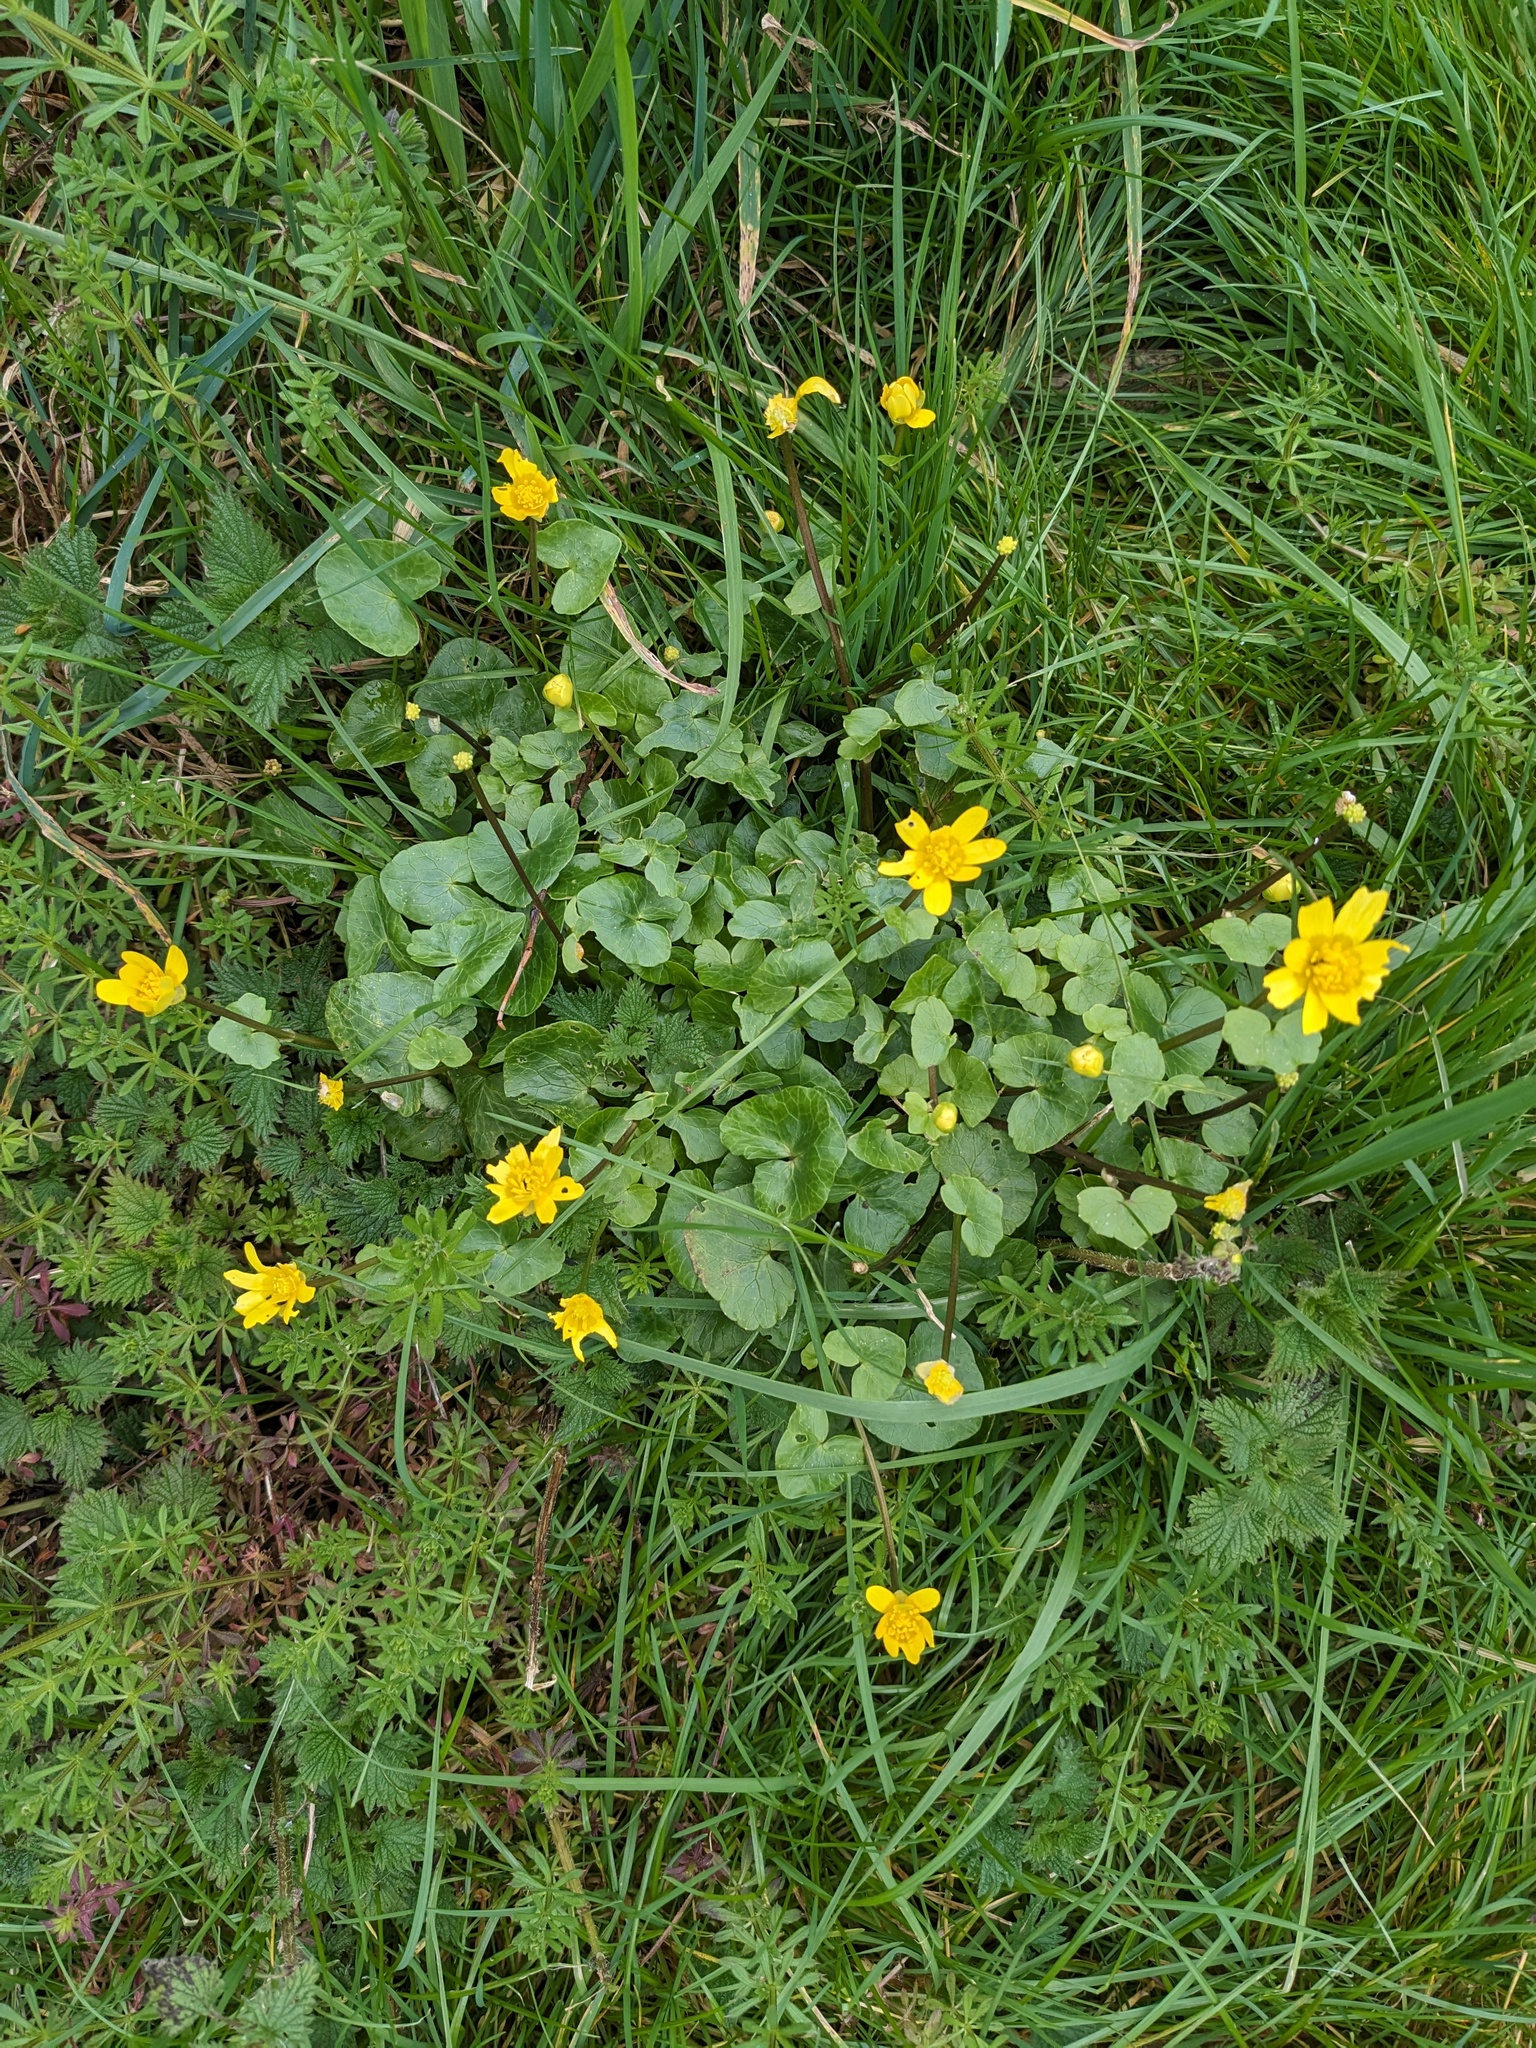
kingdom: Plantae
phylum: Tracheophyta
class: Magnoliopsida
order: Ranunculales
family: Ranunculaceae
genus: Ficaria
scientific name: Ficaria verna
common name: Lesser celandine
